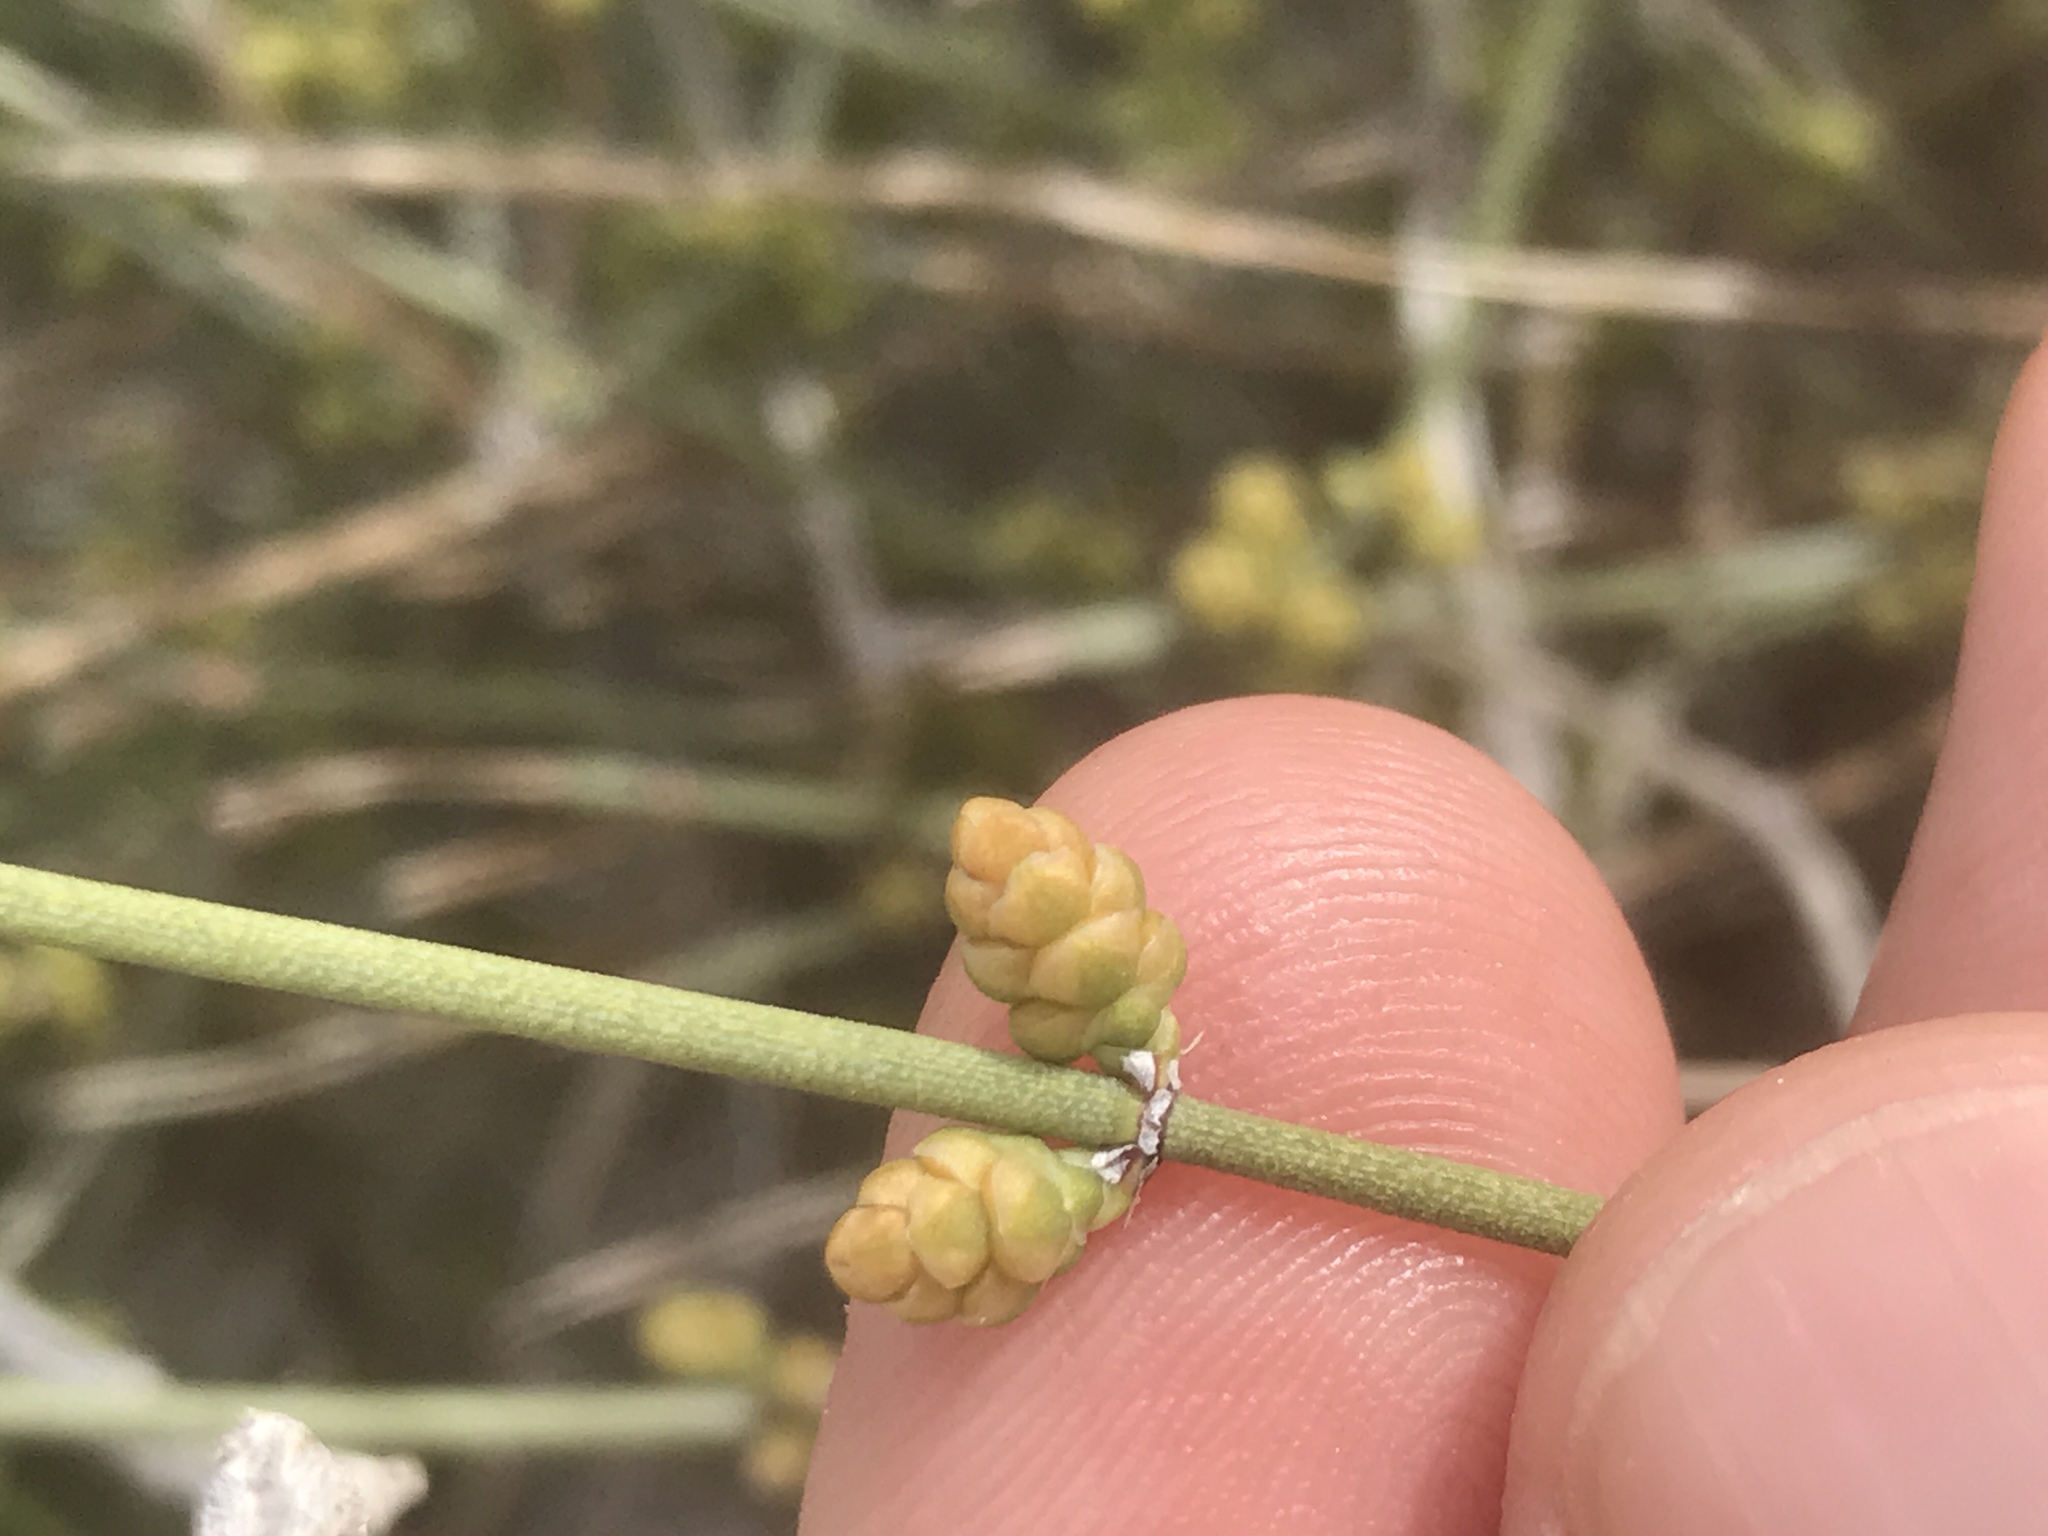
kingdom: Plantae
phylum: Tracheophyta
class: Gnetopsida
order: Ephedrales
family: Ephedraceae
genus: Ephedra
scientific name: Ephedra aspera
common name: Boundary ephedra
